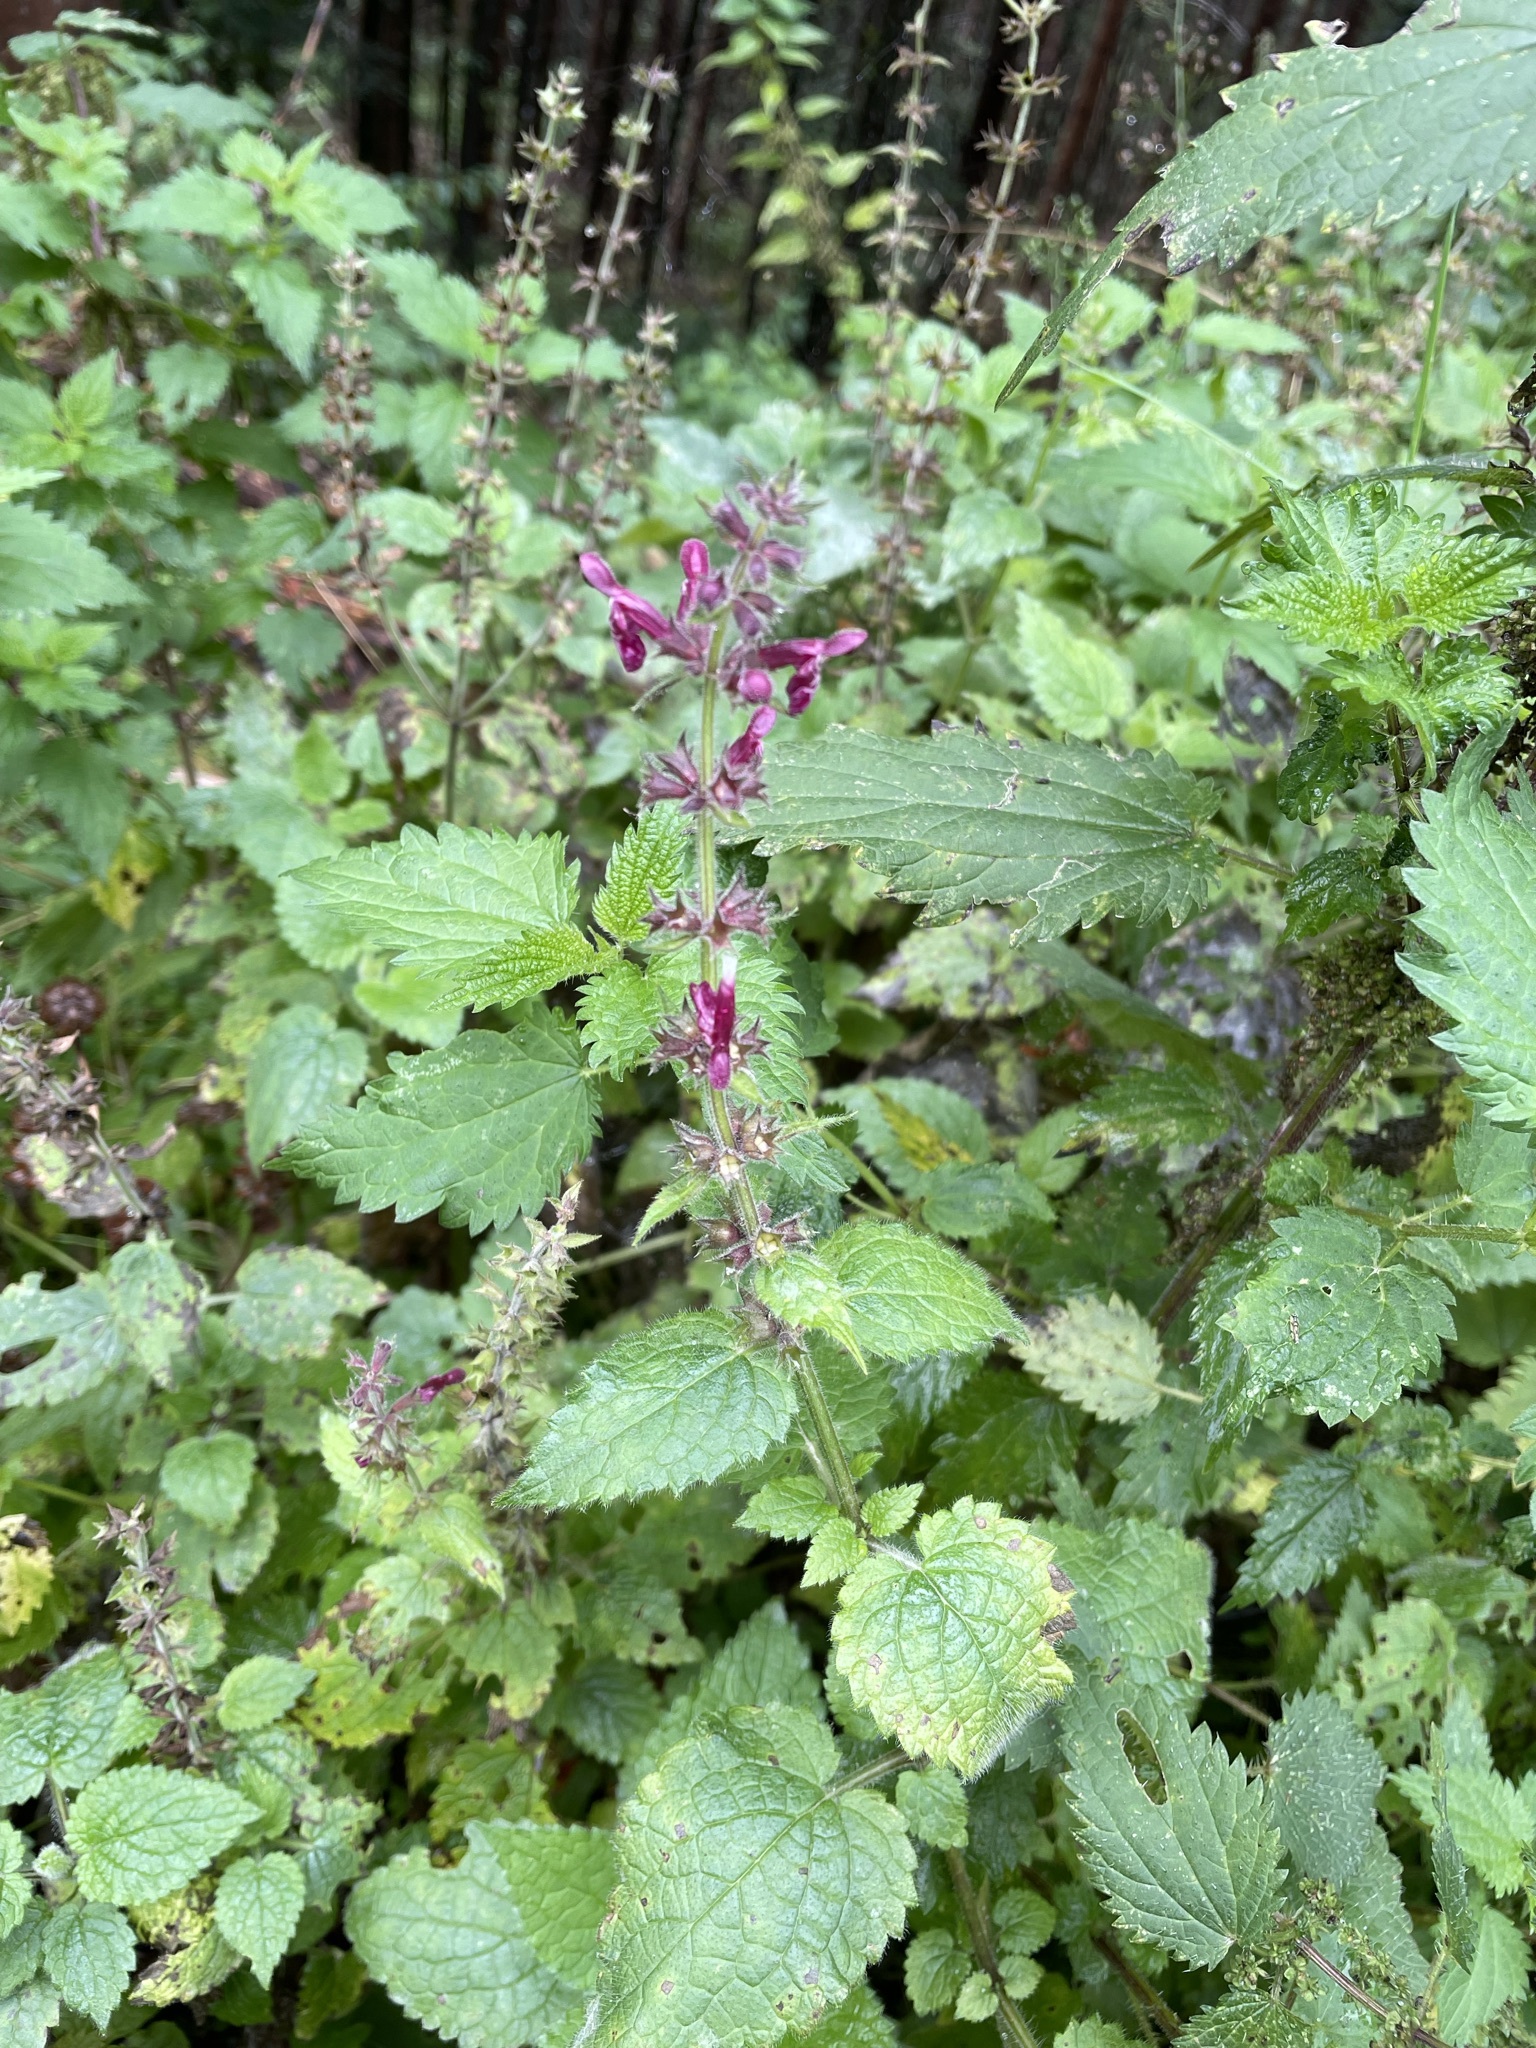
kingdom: Plantae
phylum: Tracheophyta
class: Magnoliopsida
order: Lamiales
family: Lamiaceae
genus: Stachys
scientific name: Stachys sylvatica
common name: Hedge woundwort
